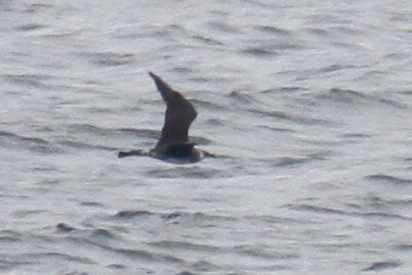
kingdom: Animalia
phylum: Chordata
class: Aves
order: Charadriiformes
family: Stercorariidae
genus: Stercorarius
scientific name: Stercorarius pomarinus
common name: Pomarine jaeger
